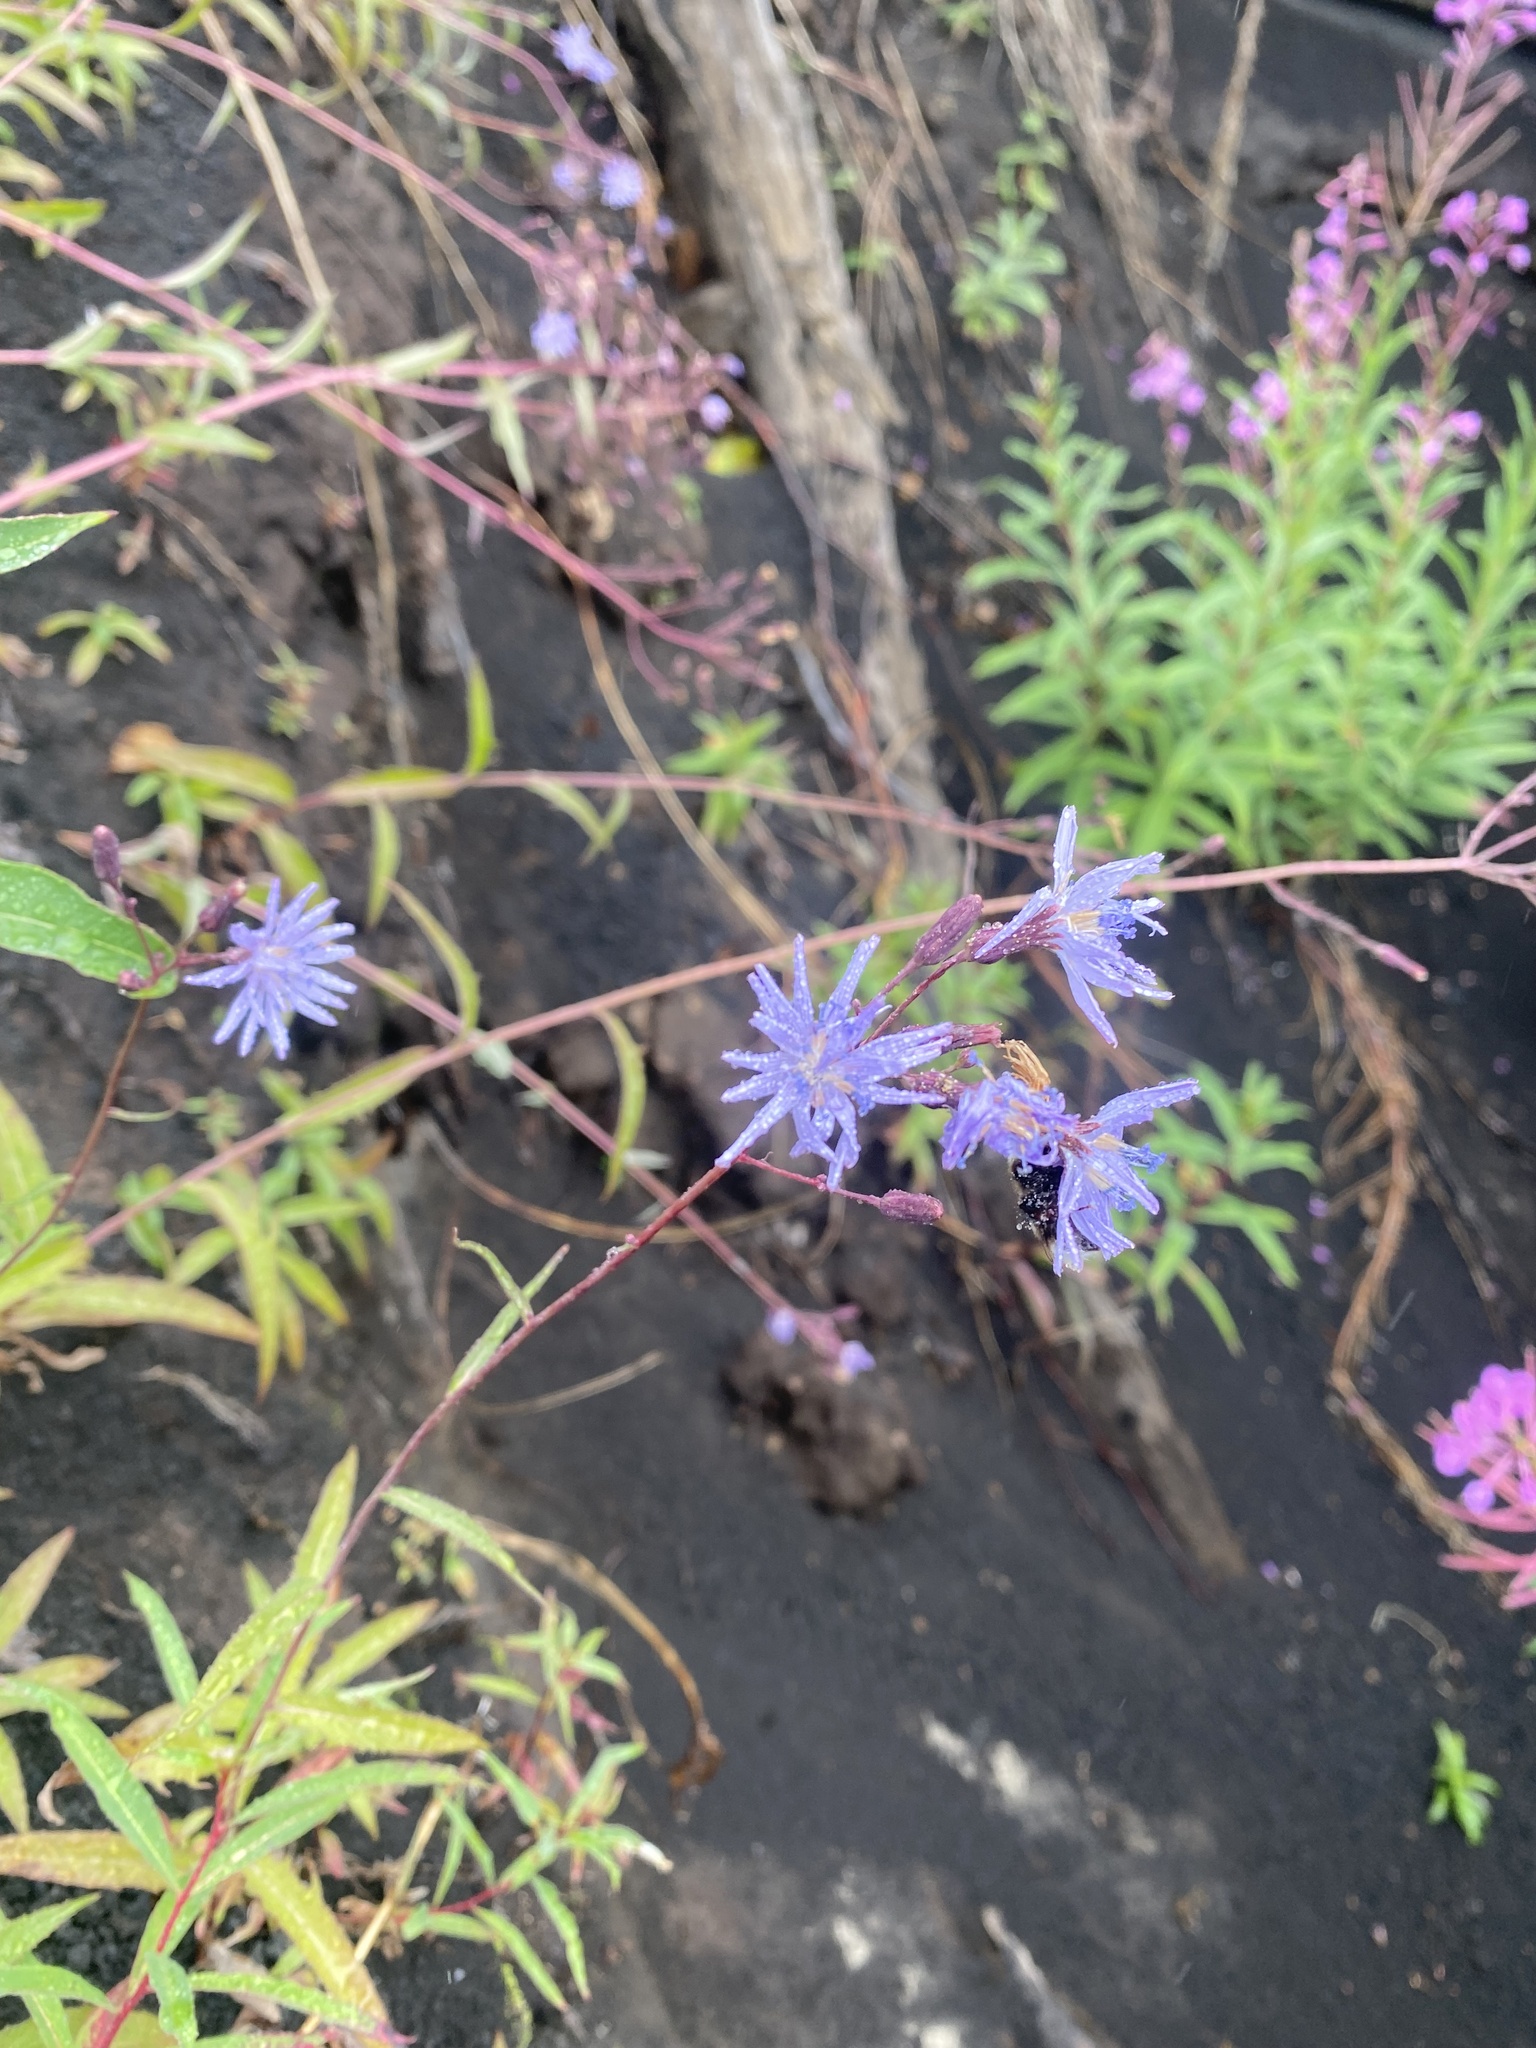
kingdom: Plantae
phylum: Tracheophyta
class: Magnoliopsida
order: Asterales
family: Asteraceae
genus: Lactuca
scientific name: Lactuca sibirica
